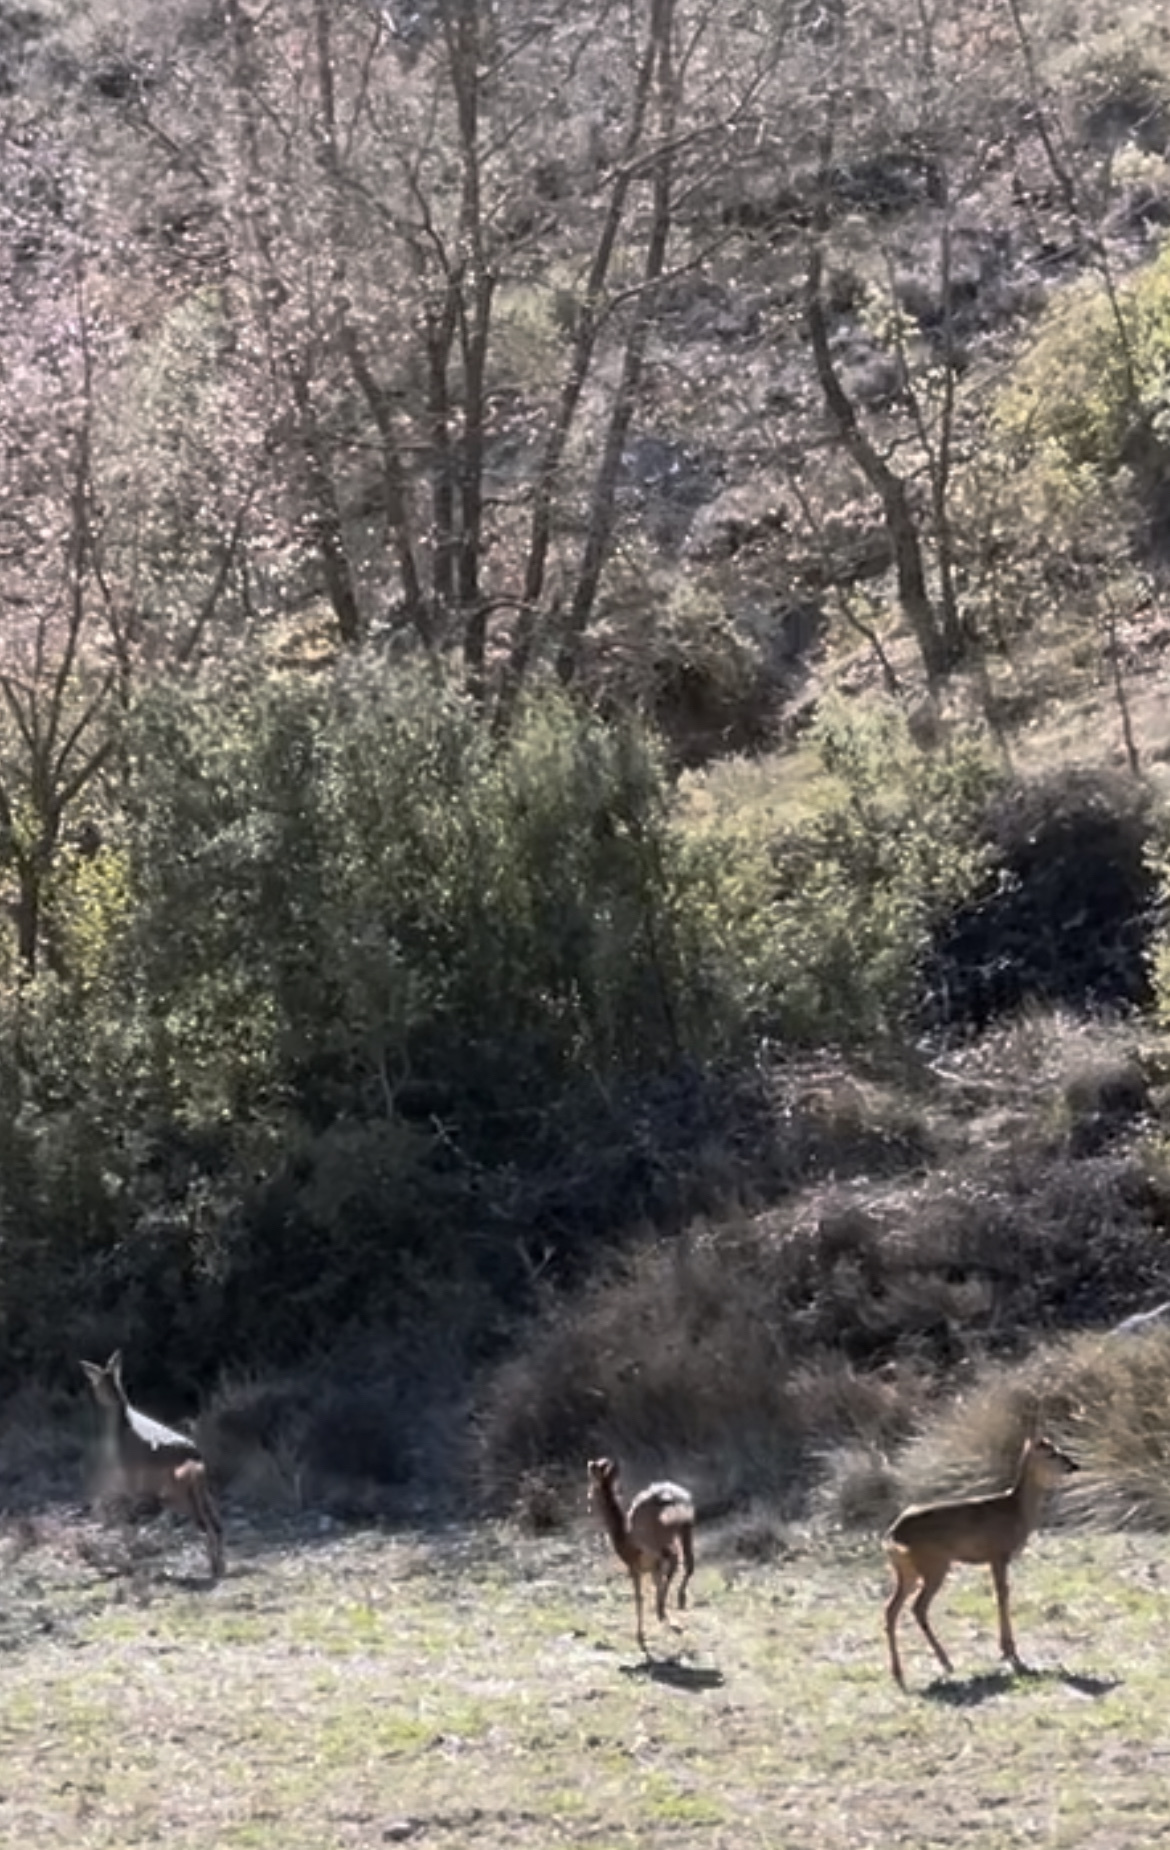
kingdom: Animalia
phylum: Chordata
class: Mammalia
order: Artiodactyla
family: Cervidae
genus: Capreolus
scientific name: Capreolus capreolus
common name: Western roe deer
